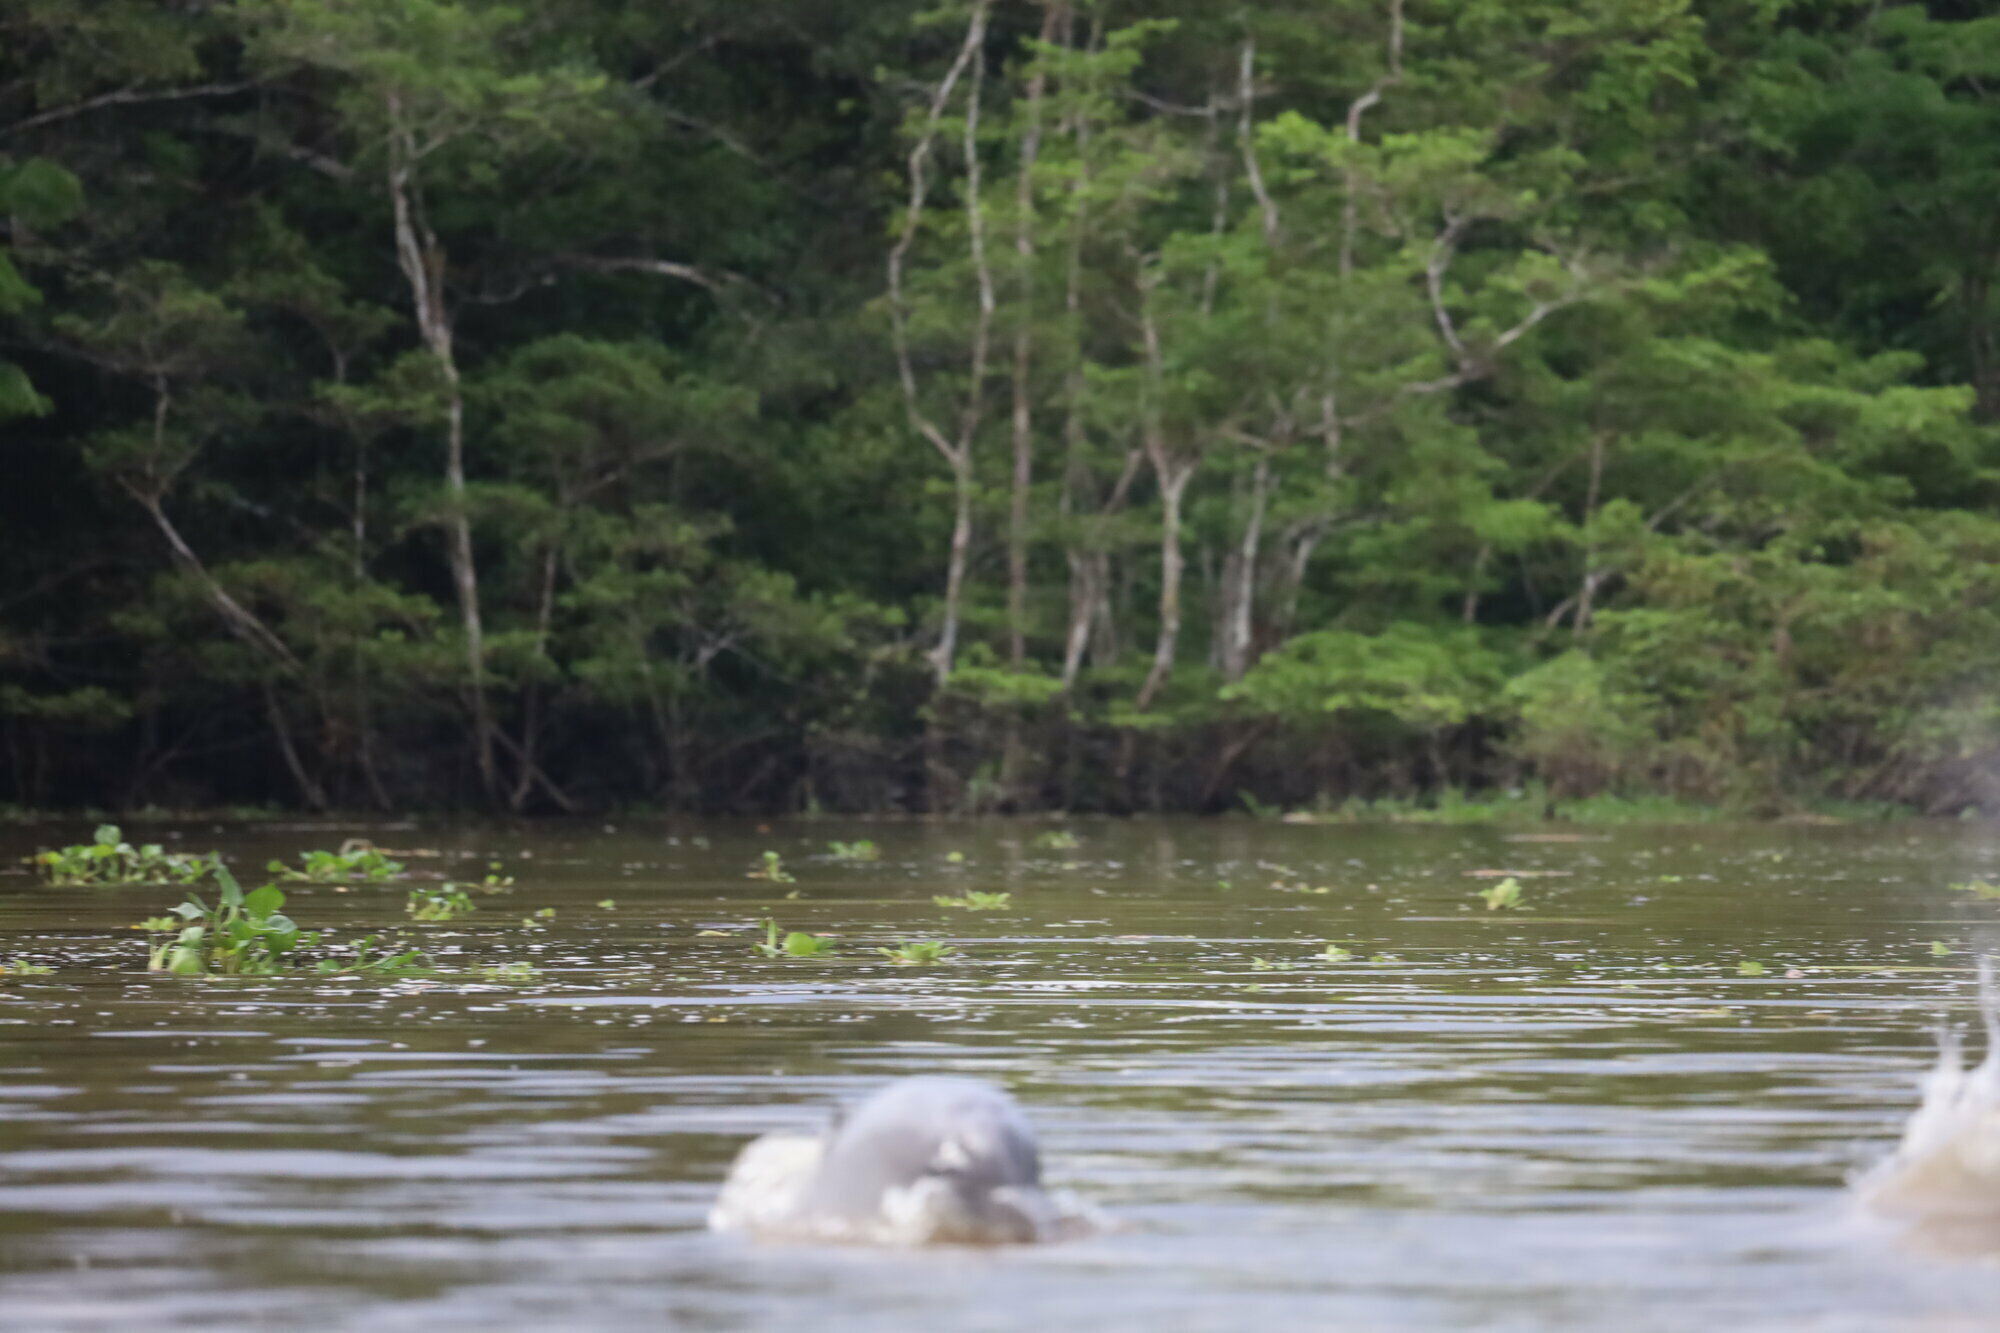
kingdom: Animalia
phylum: Chordata
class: Mammalia
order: Cetacea
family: Delphinidae
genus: Sotalia
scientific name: Sotalia fluviatilis
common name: Tucuxi
